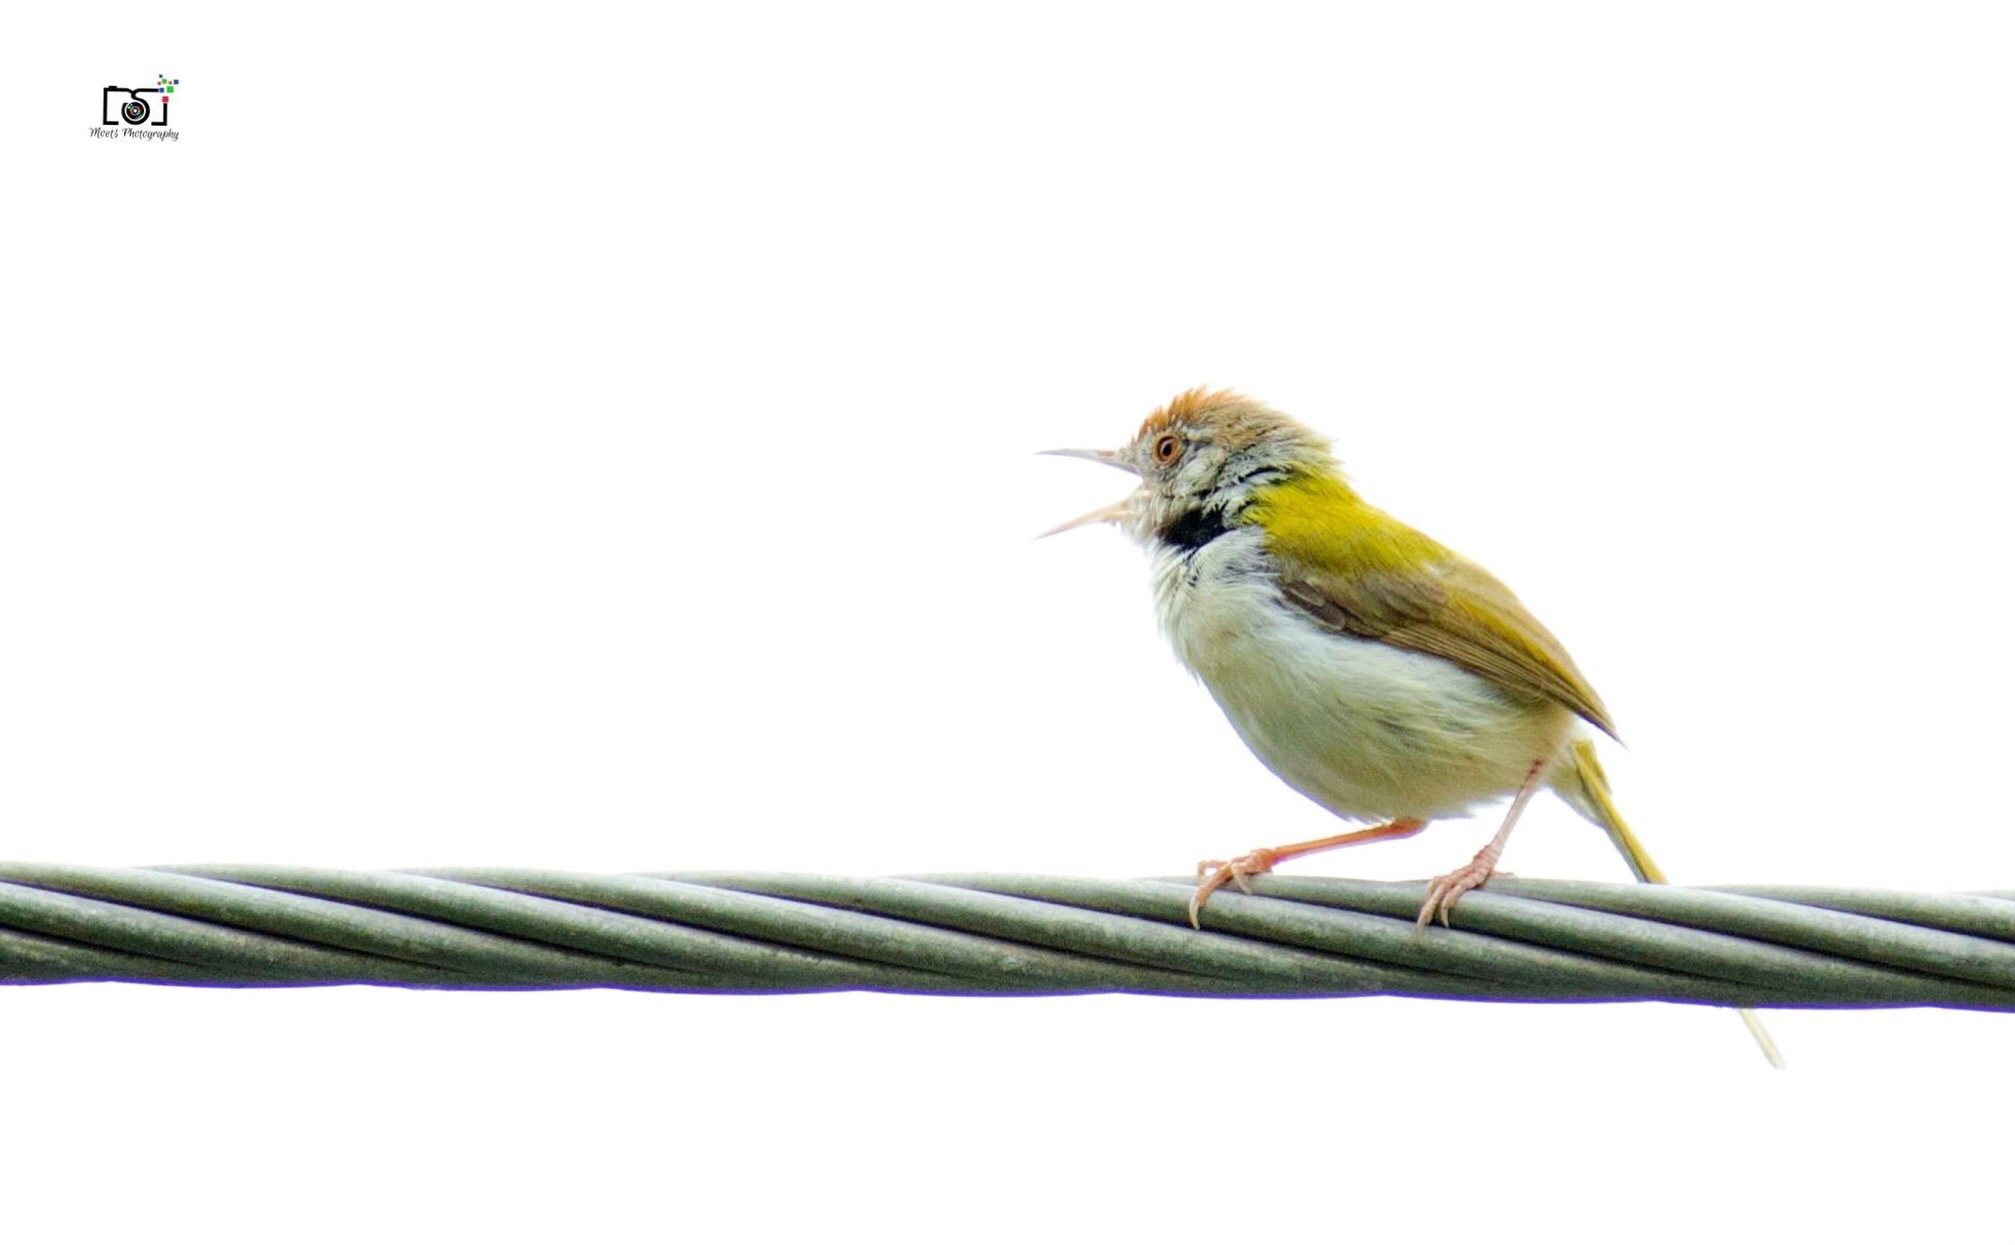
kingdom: Animalia
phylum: Chordata
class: Aves
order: Passeriformes
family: Cisticolidae
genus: Orthotomus
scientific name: Orthotomus sutorius
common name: Common tailorbird
